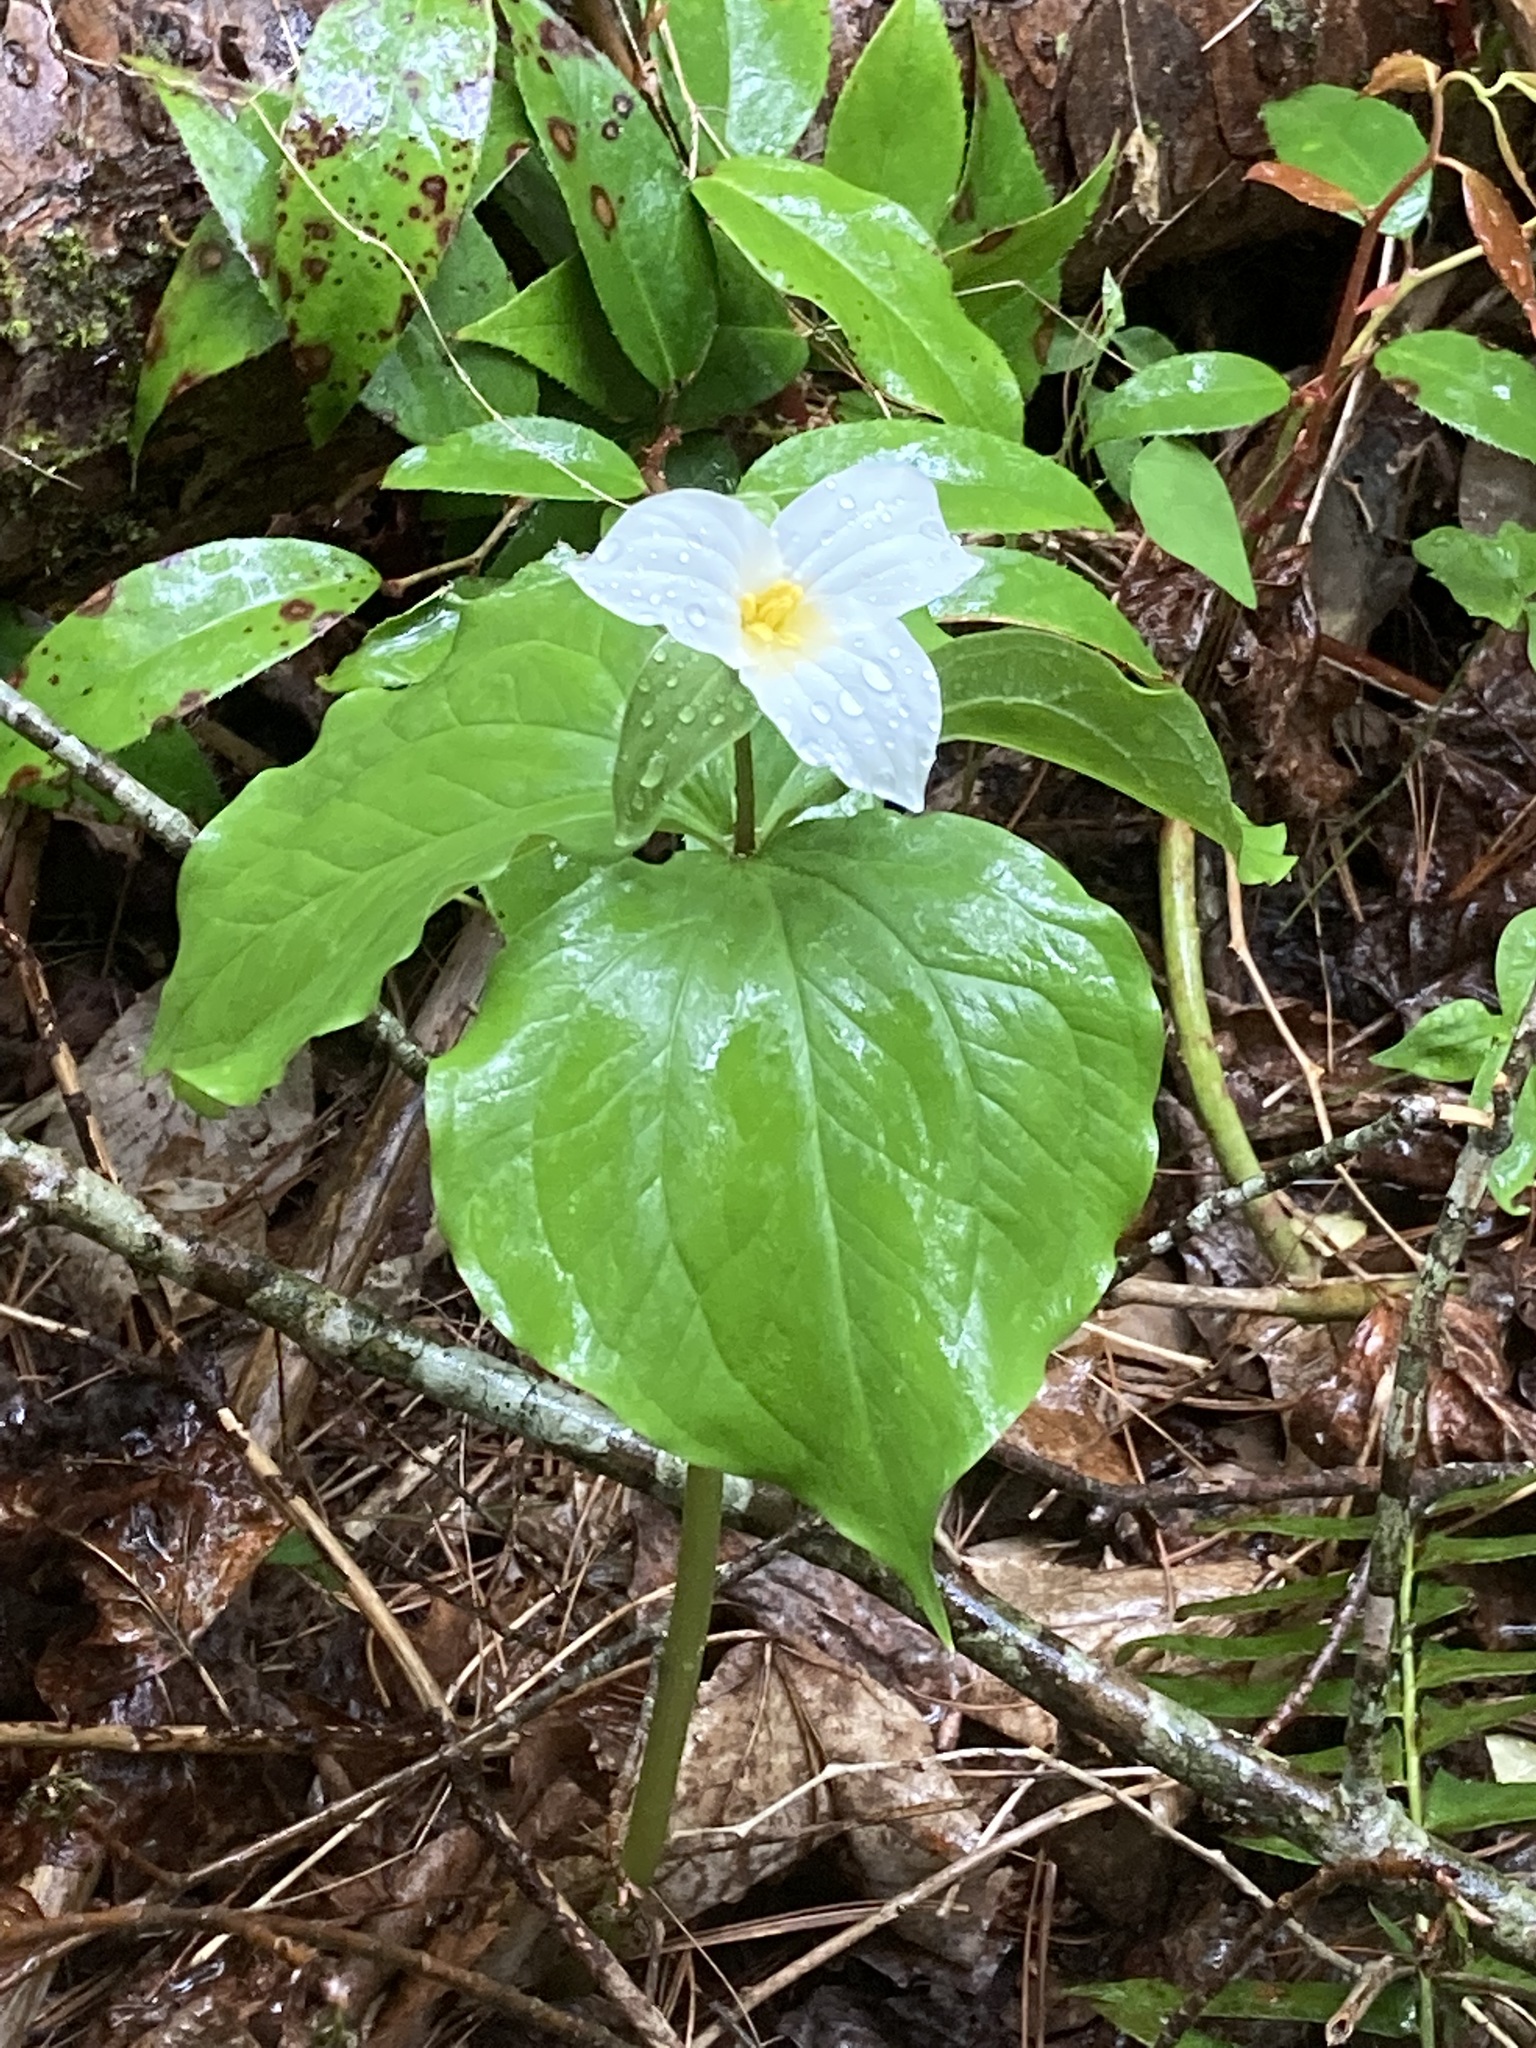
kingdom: Plantae
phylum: Tracheophyta
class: Liliopsida
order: Liliales
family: Melanthiaceae
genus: Trillium
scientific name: Trillium grandiflorum
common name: Great white trillium
